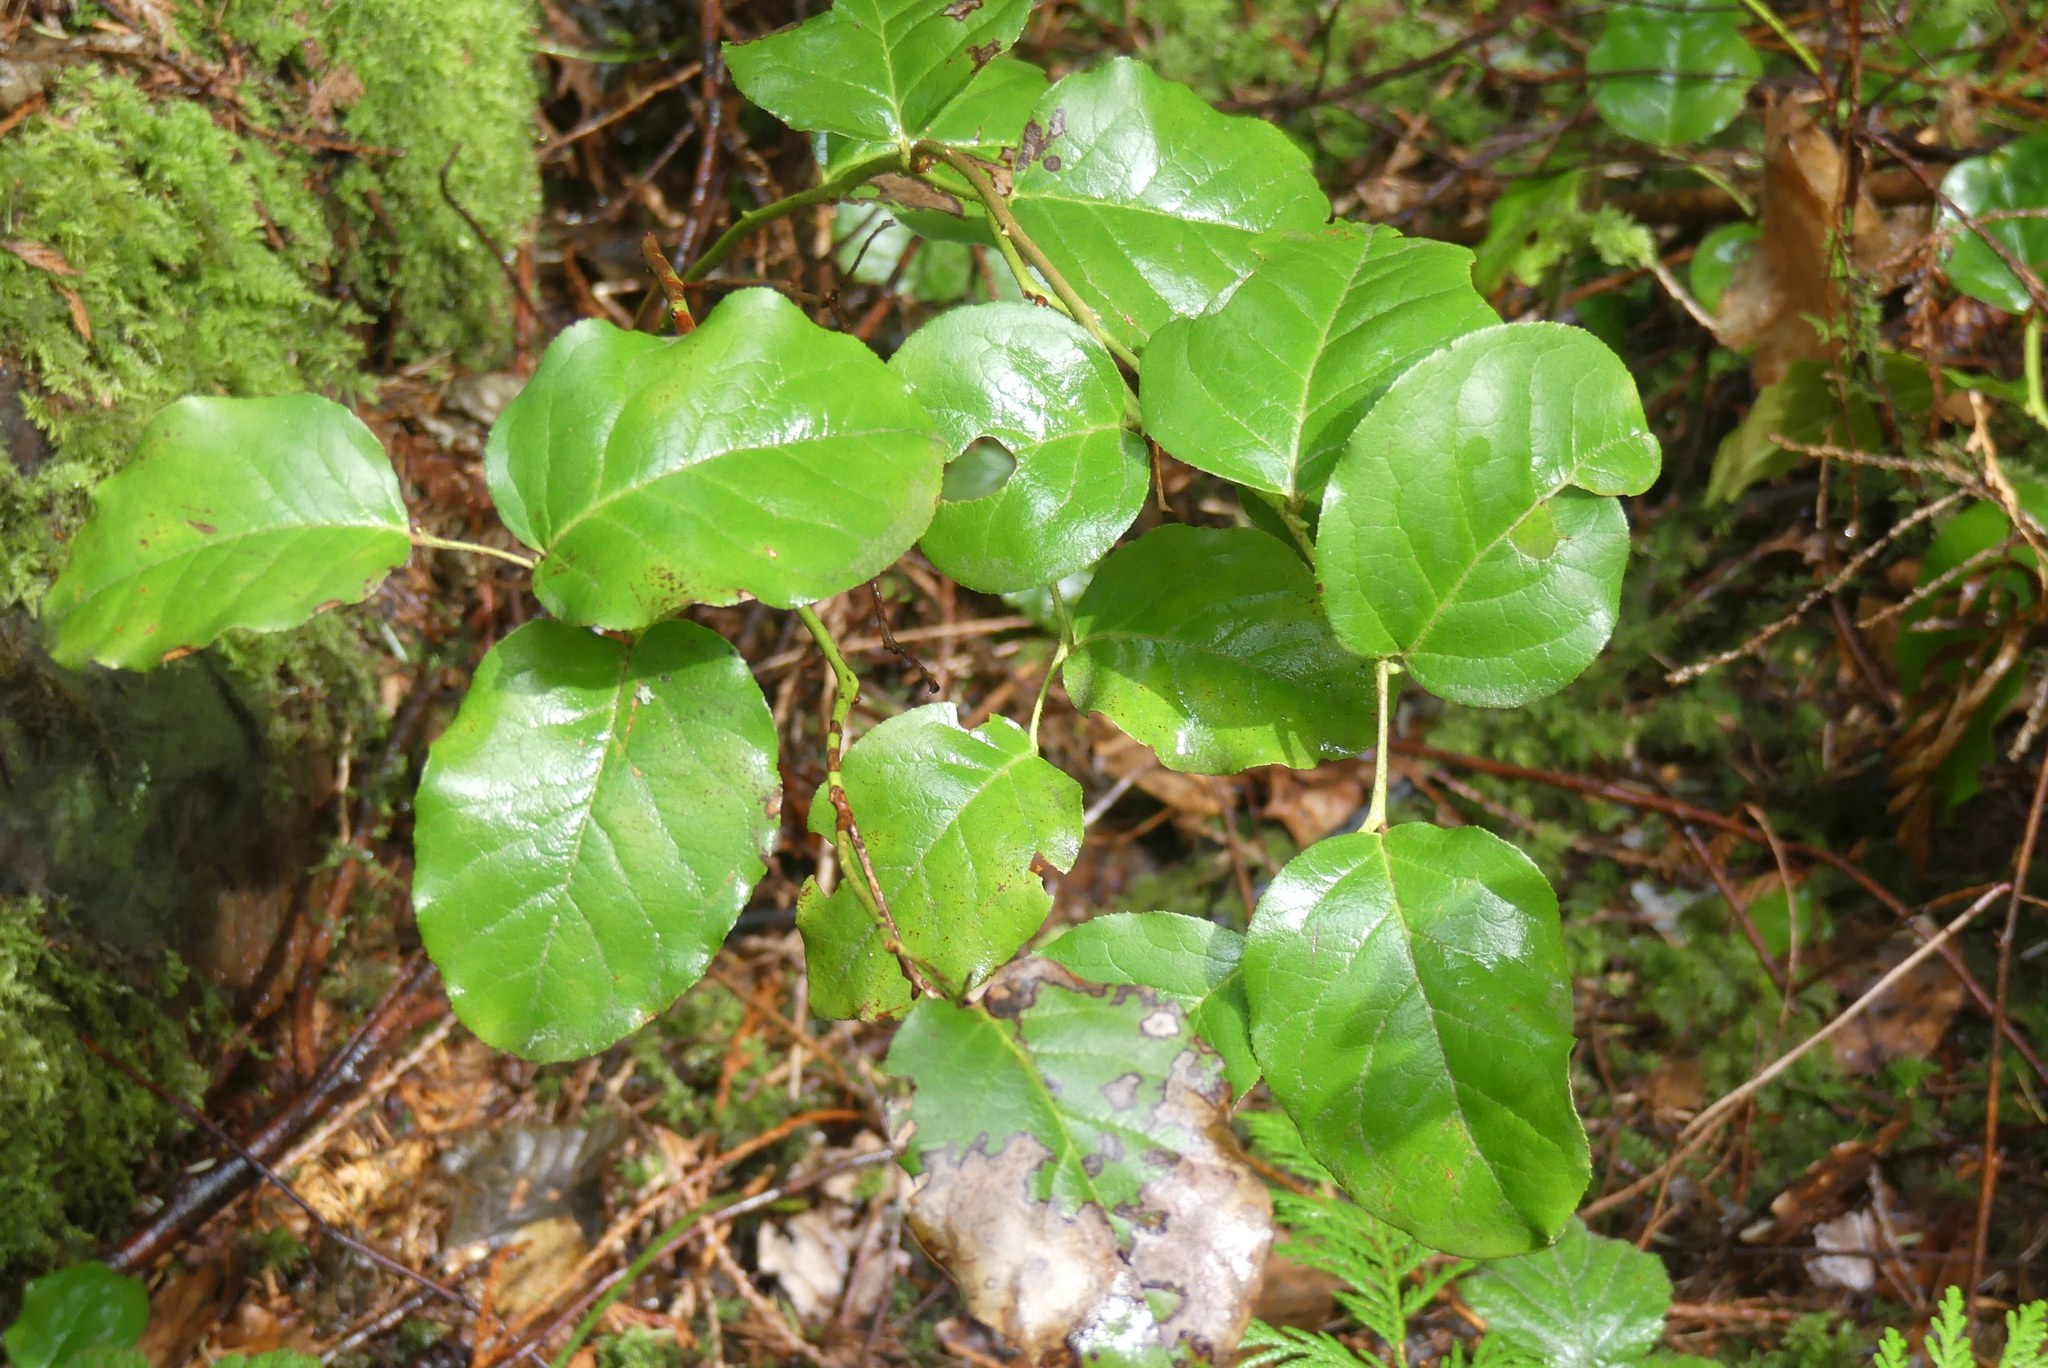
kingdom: Plantae
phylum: Tracheophyta
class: Magnoliopsida
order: Ericales
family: Ericaceae
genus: Gaultheria
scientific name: Gaultheria shallon
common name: Shallon
